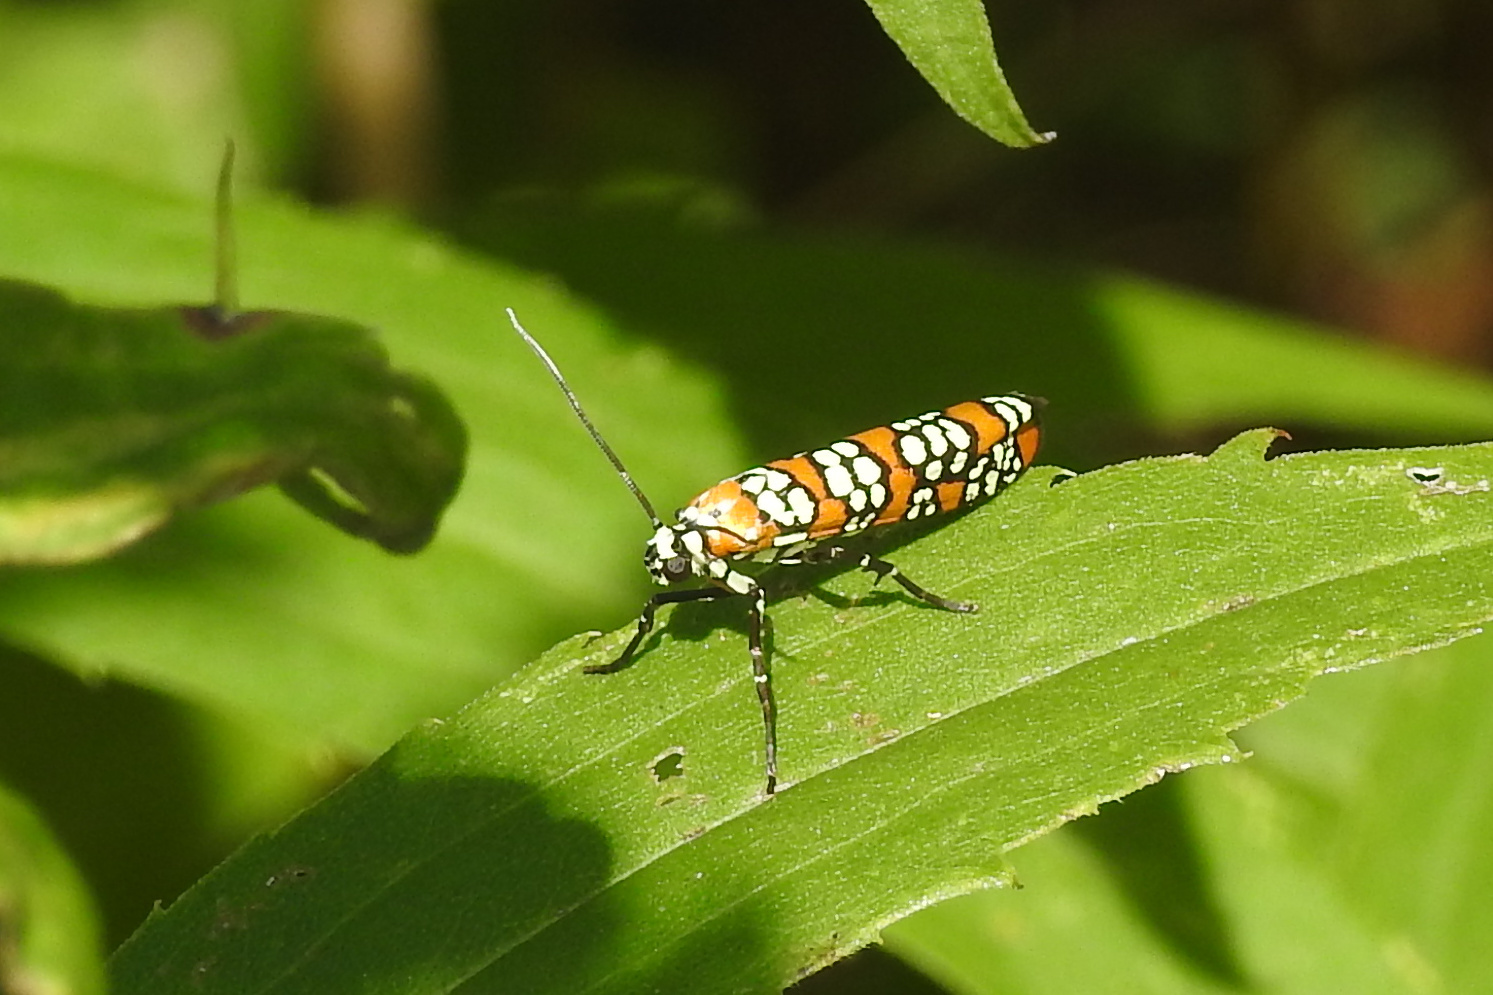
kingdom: Animalia
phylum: Arthropoda
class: Insecta
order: Lepidoptera
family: Attevidae
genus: Atteva
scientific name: Atteva punctella
